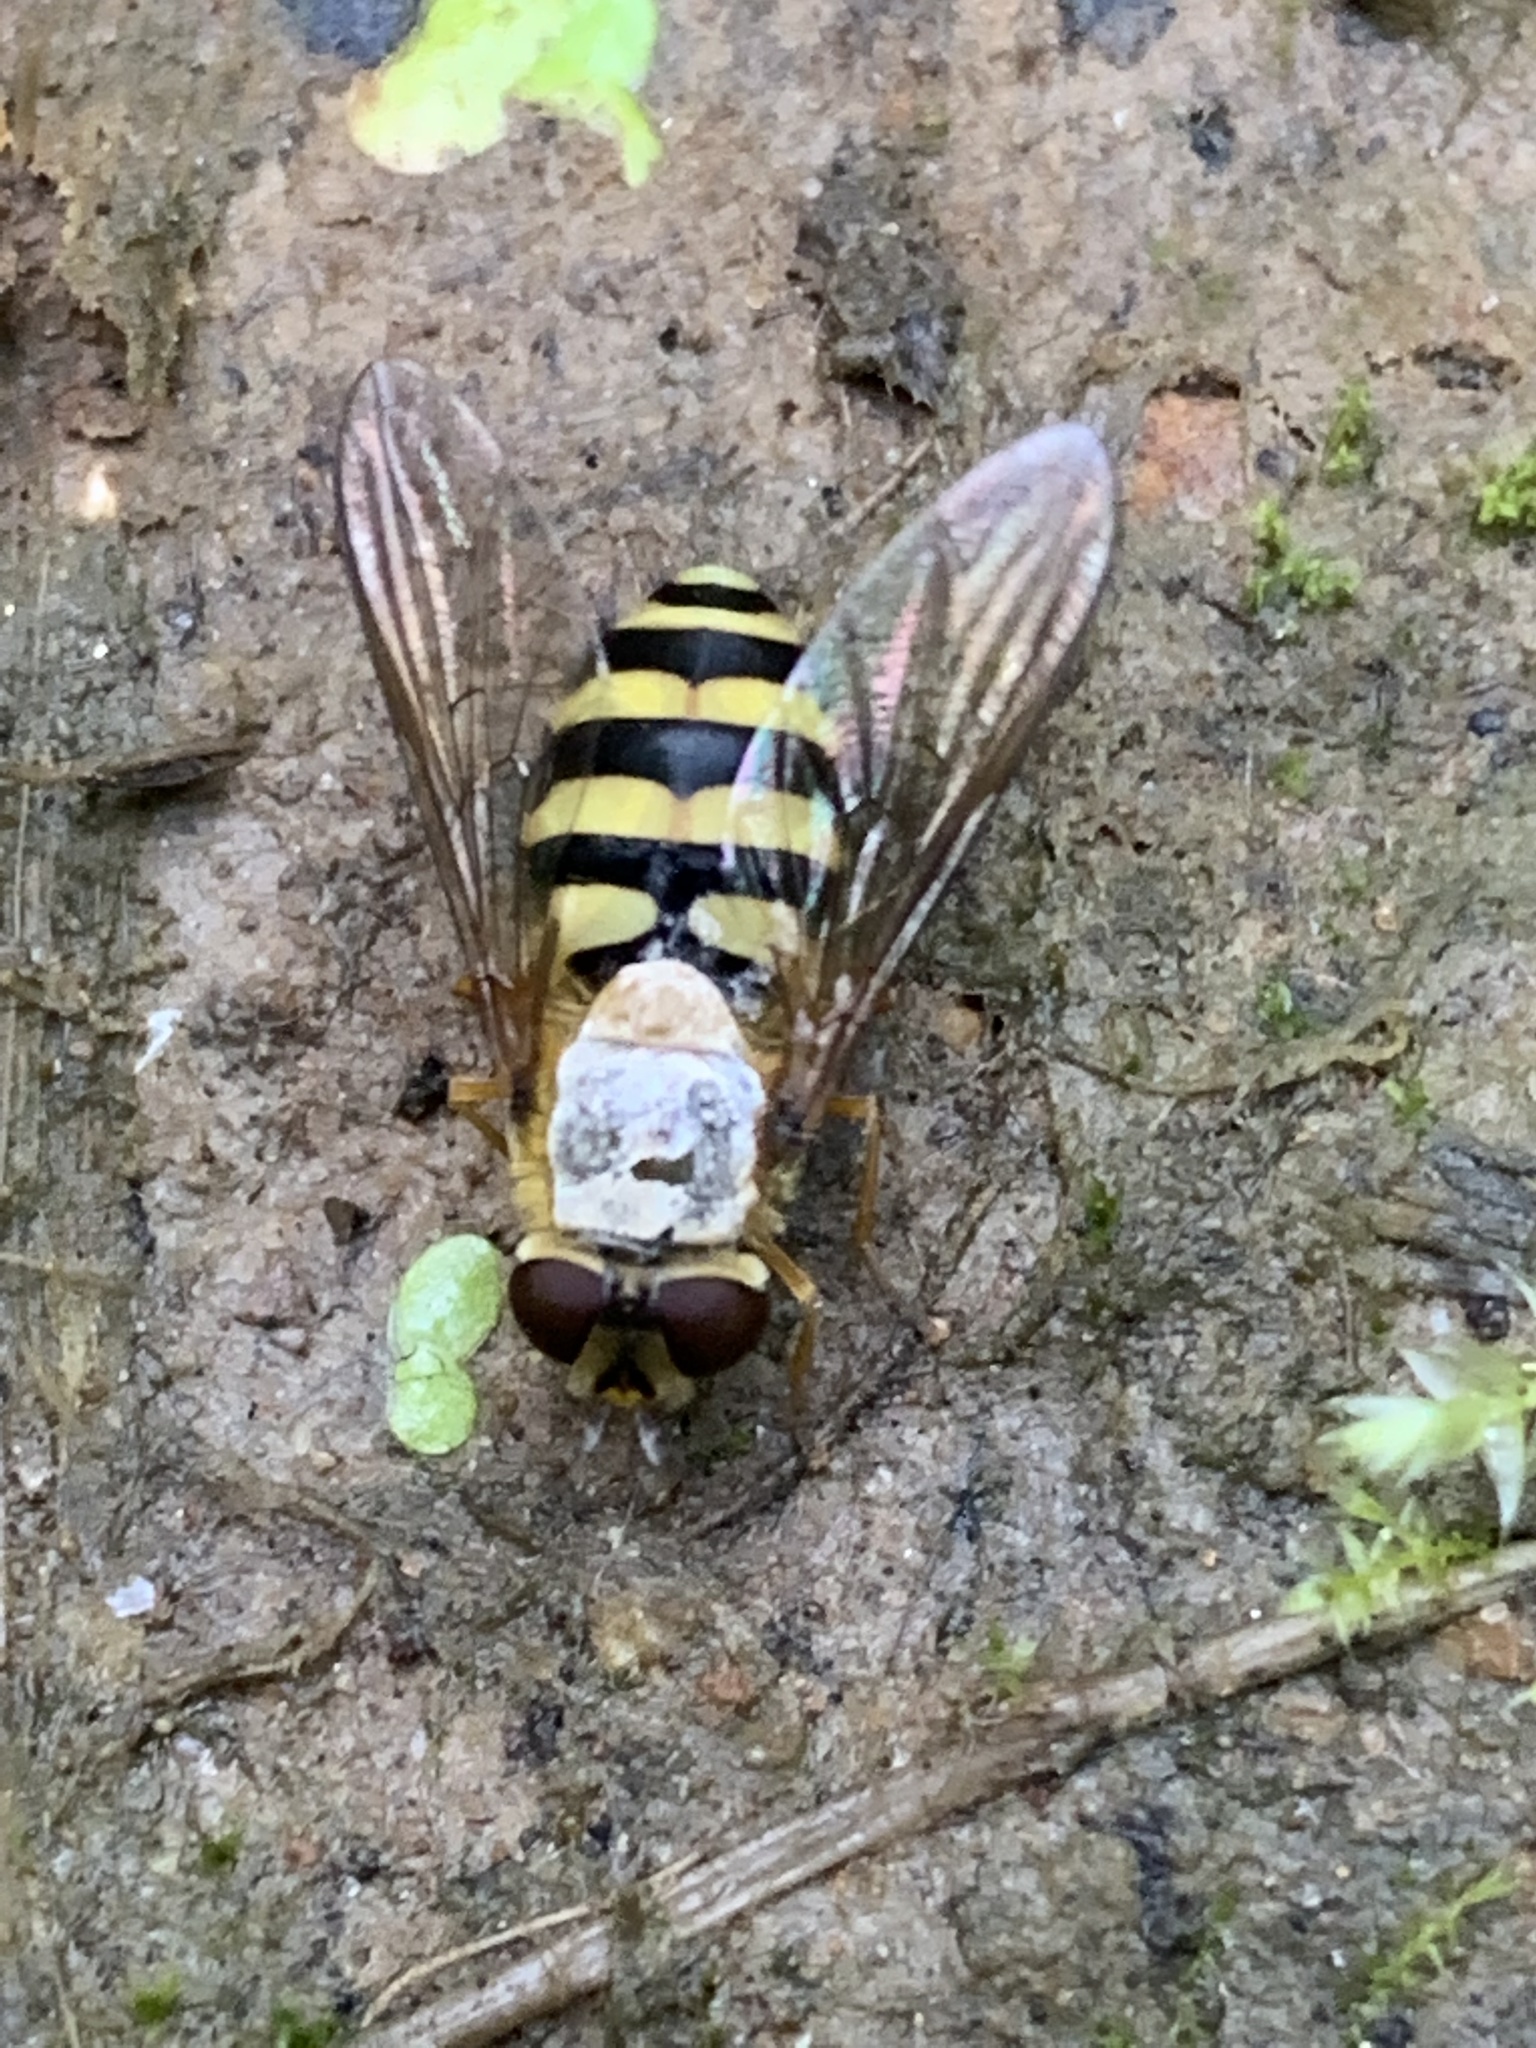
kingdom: Animalia
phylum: Arthropoda
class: Insecta
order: Diptera
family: Syrphidae
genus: Syrphus
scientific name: Syrphus
